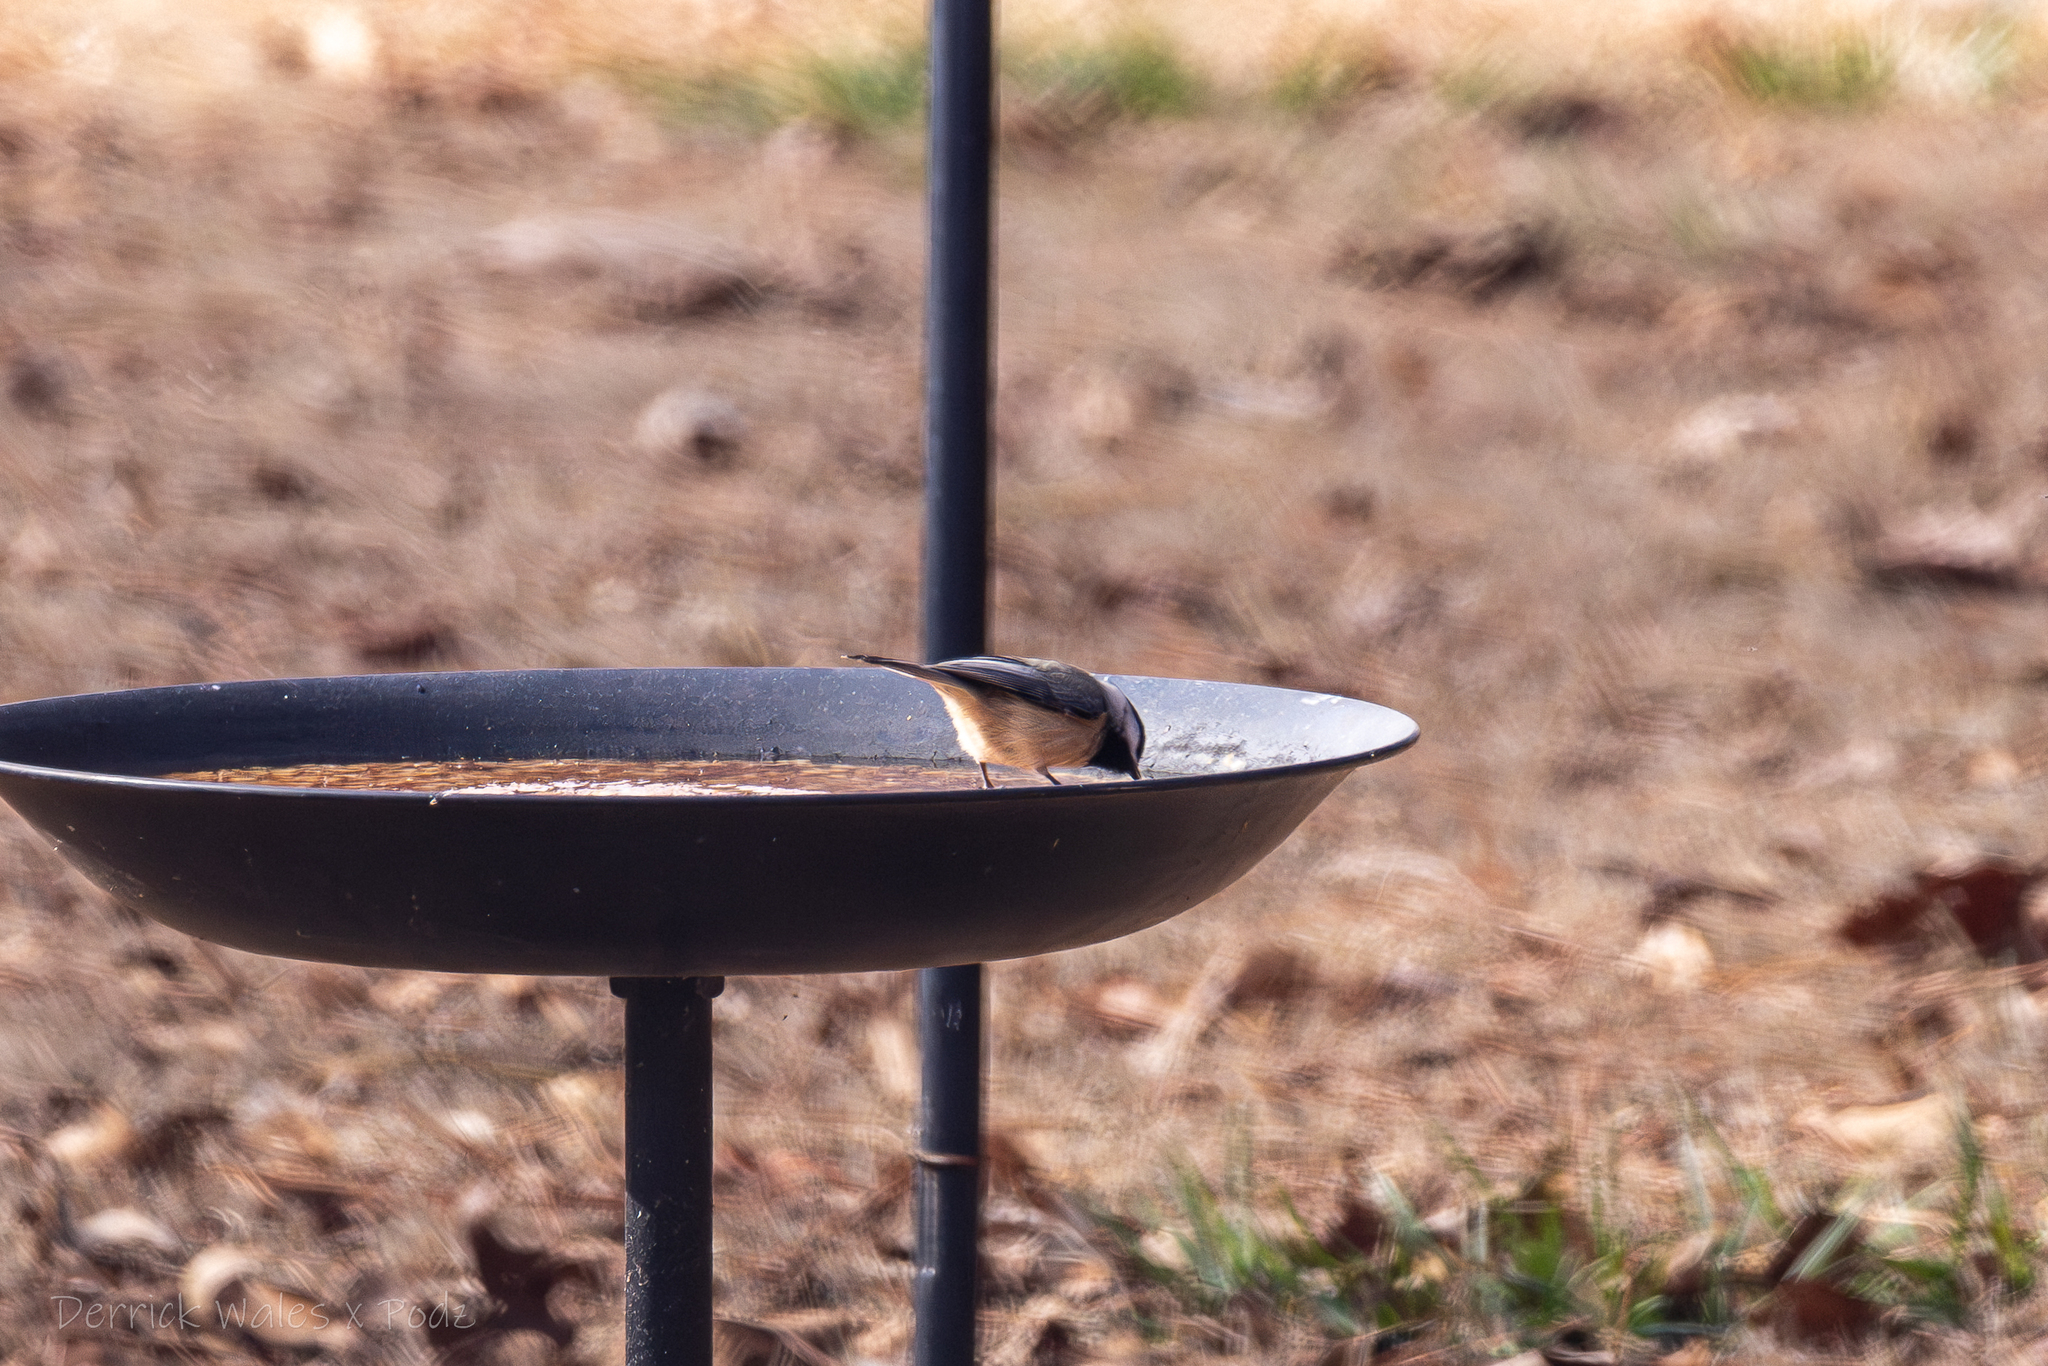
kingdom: Animalia
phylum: Chordata
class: Aves
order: Passeriformes
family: Paridae
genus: Poecile
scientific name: Poecile carolinensis
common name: Carolina chickadee
